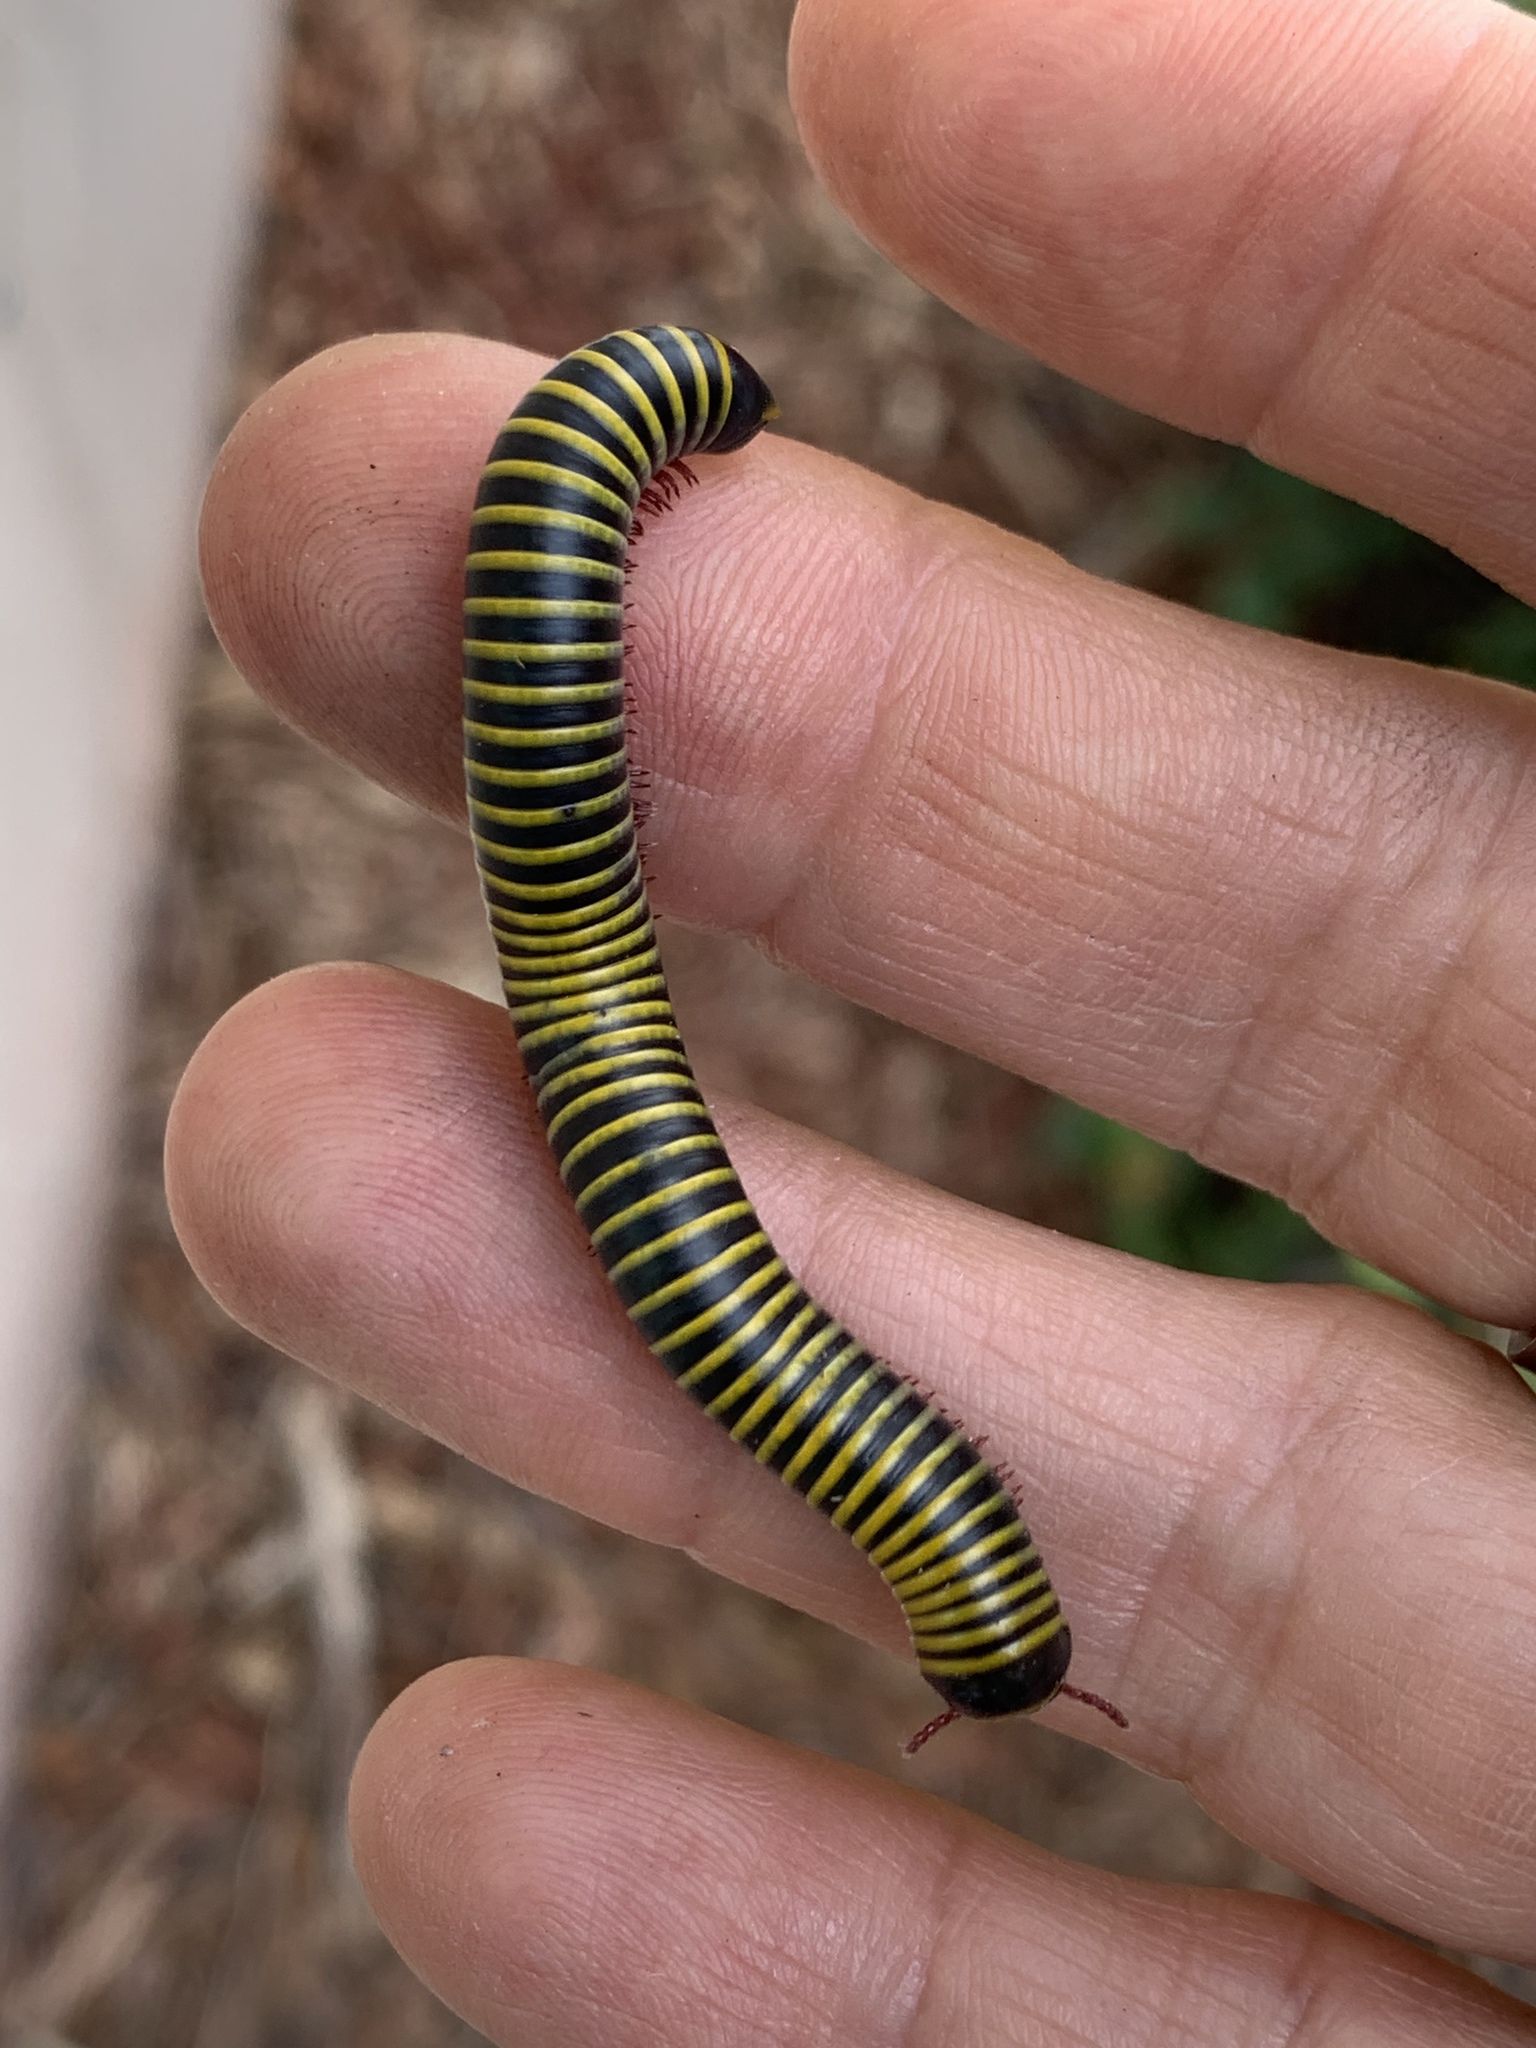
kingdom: Animalia
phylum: Arthropoda
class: Diplopoda
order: Spirobolida
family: Rhinocricidae
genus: Anadenobolus
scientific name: Anadenobolus monilicornis
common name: Caribbean millipede
